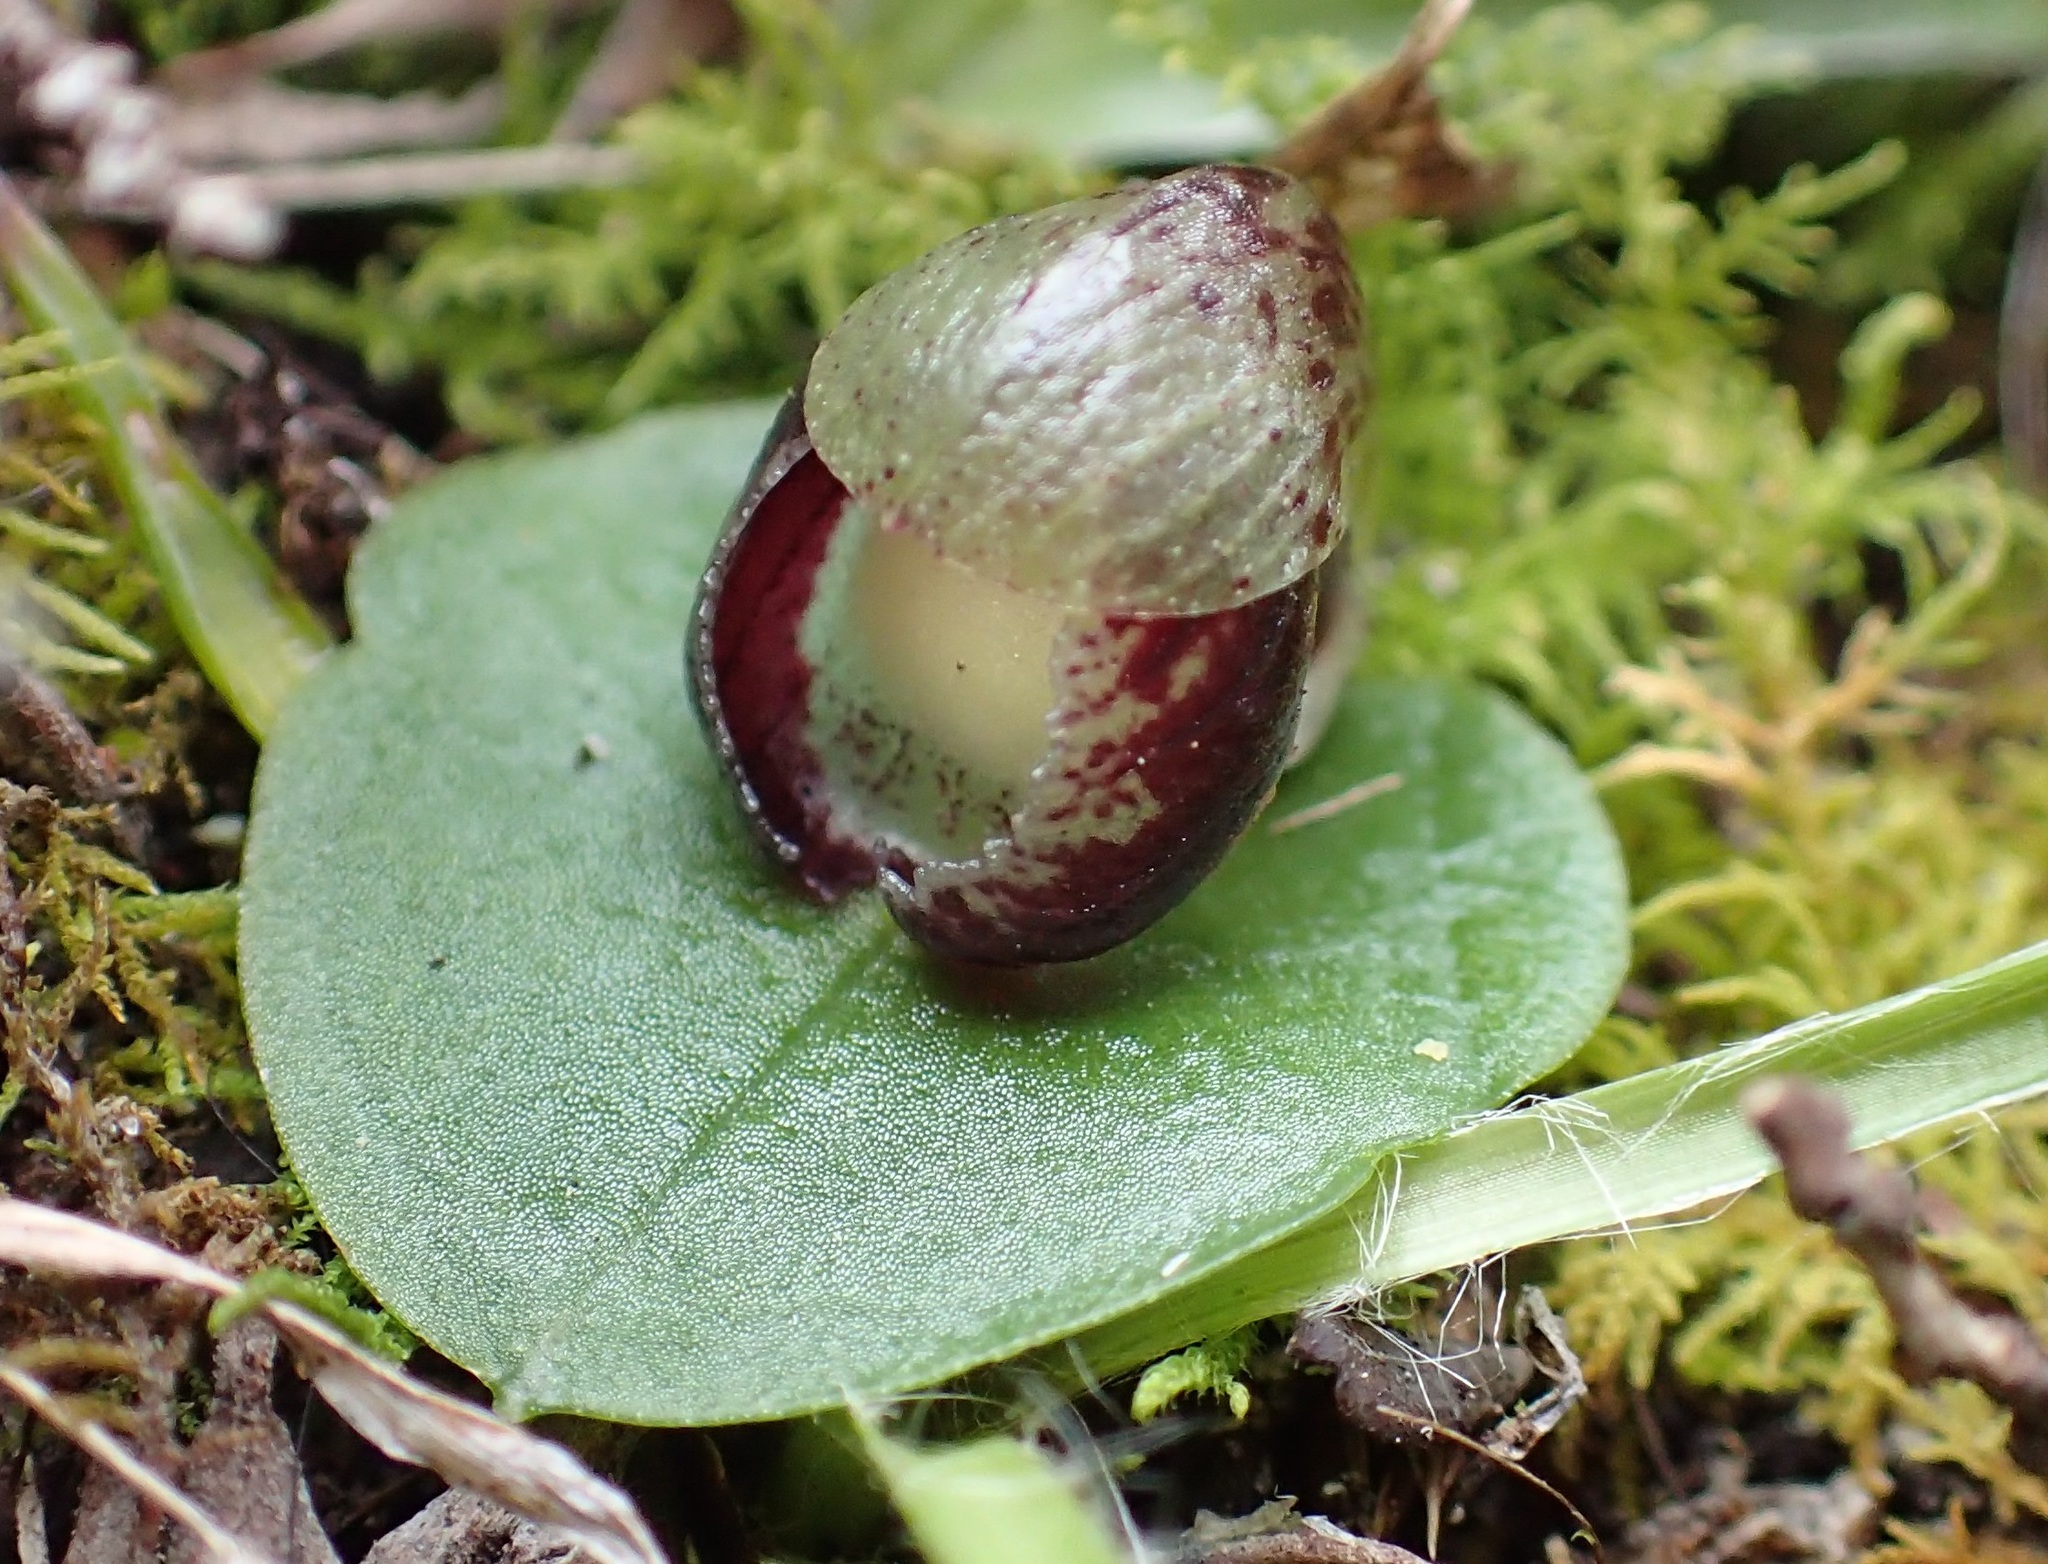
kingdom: Plantae
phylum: Tracheophyta
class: Liliopsida
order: Asparagales
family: Orchidaceae
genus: Corybas
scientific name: Corybas incurvus
